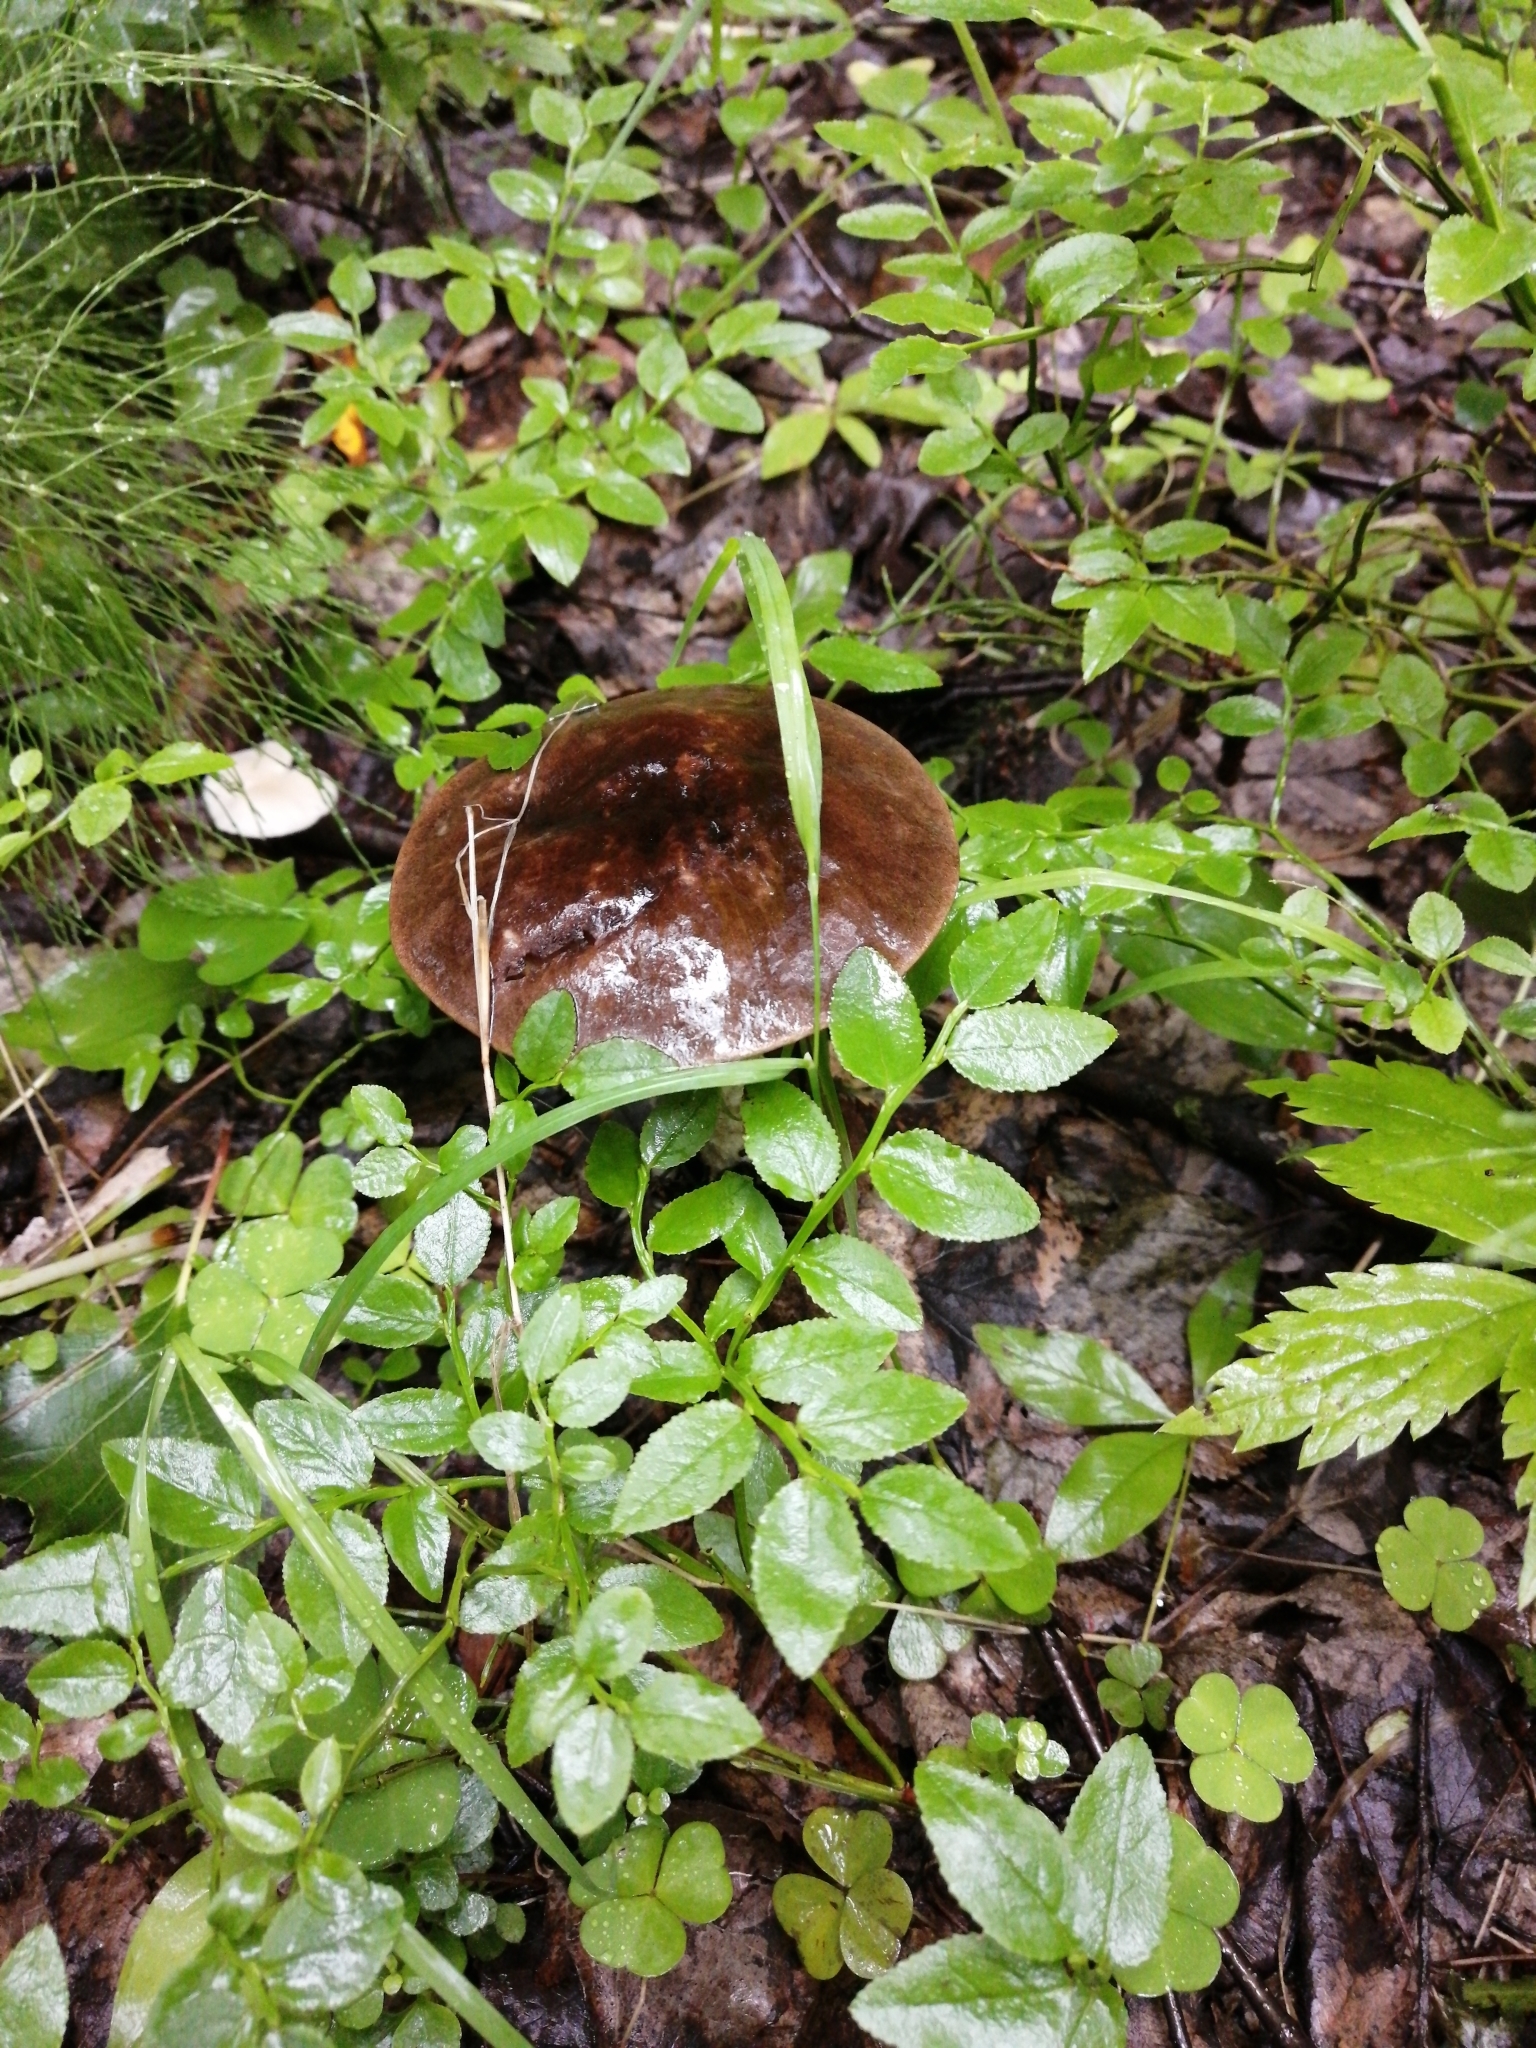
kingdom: Fungi
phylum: Basidiomycota
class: Agaricomycetes
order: Boletales
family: Boletaceae
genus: Leccinum
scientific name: Leccinum scabrum
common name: Blushing bolete
